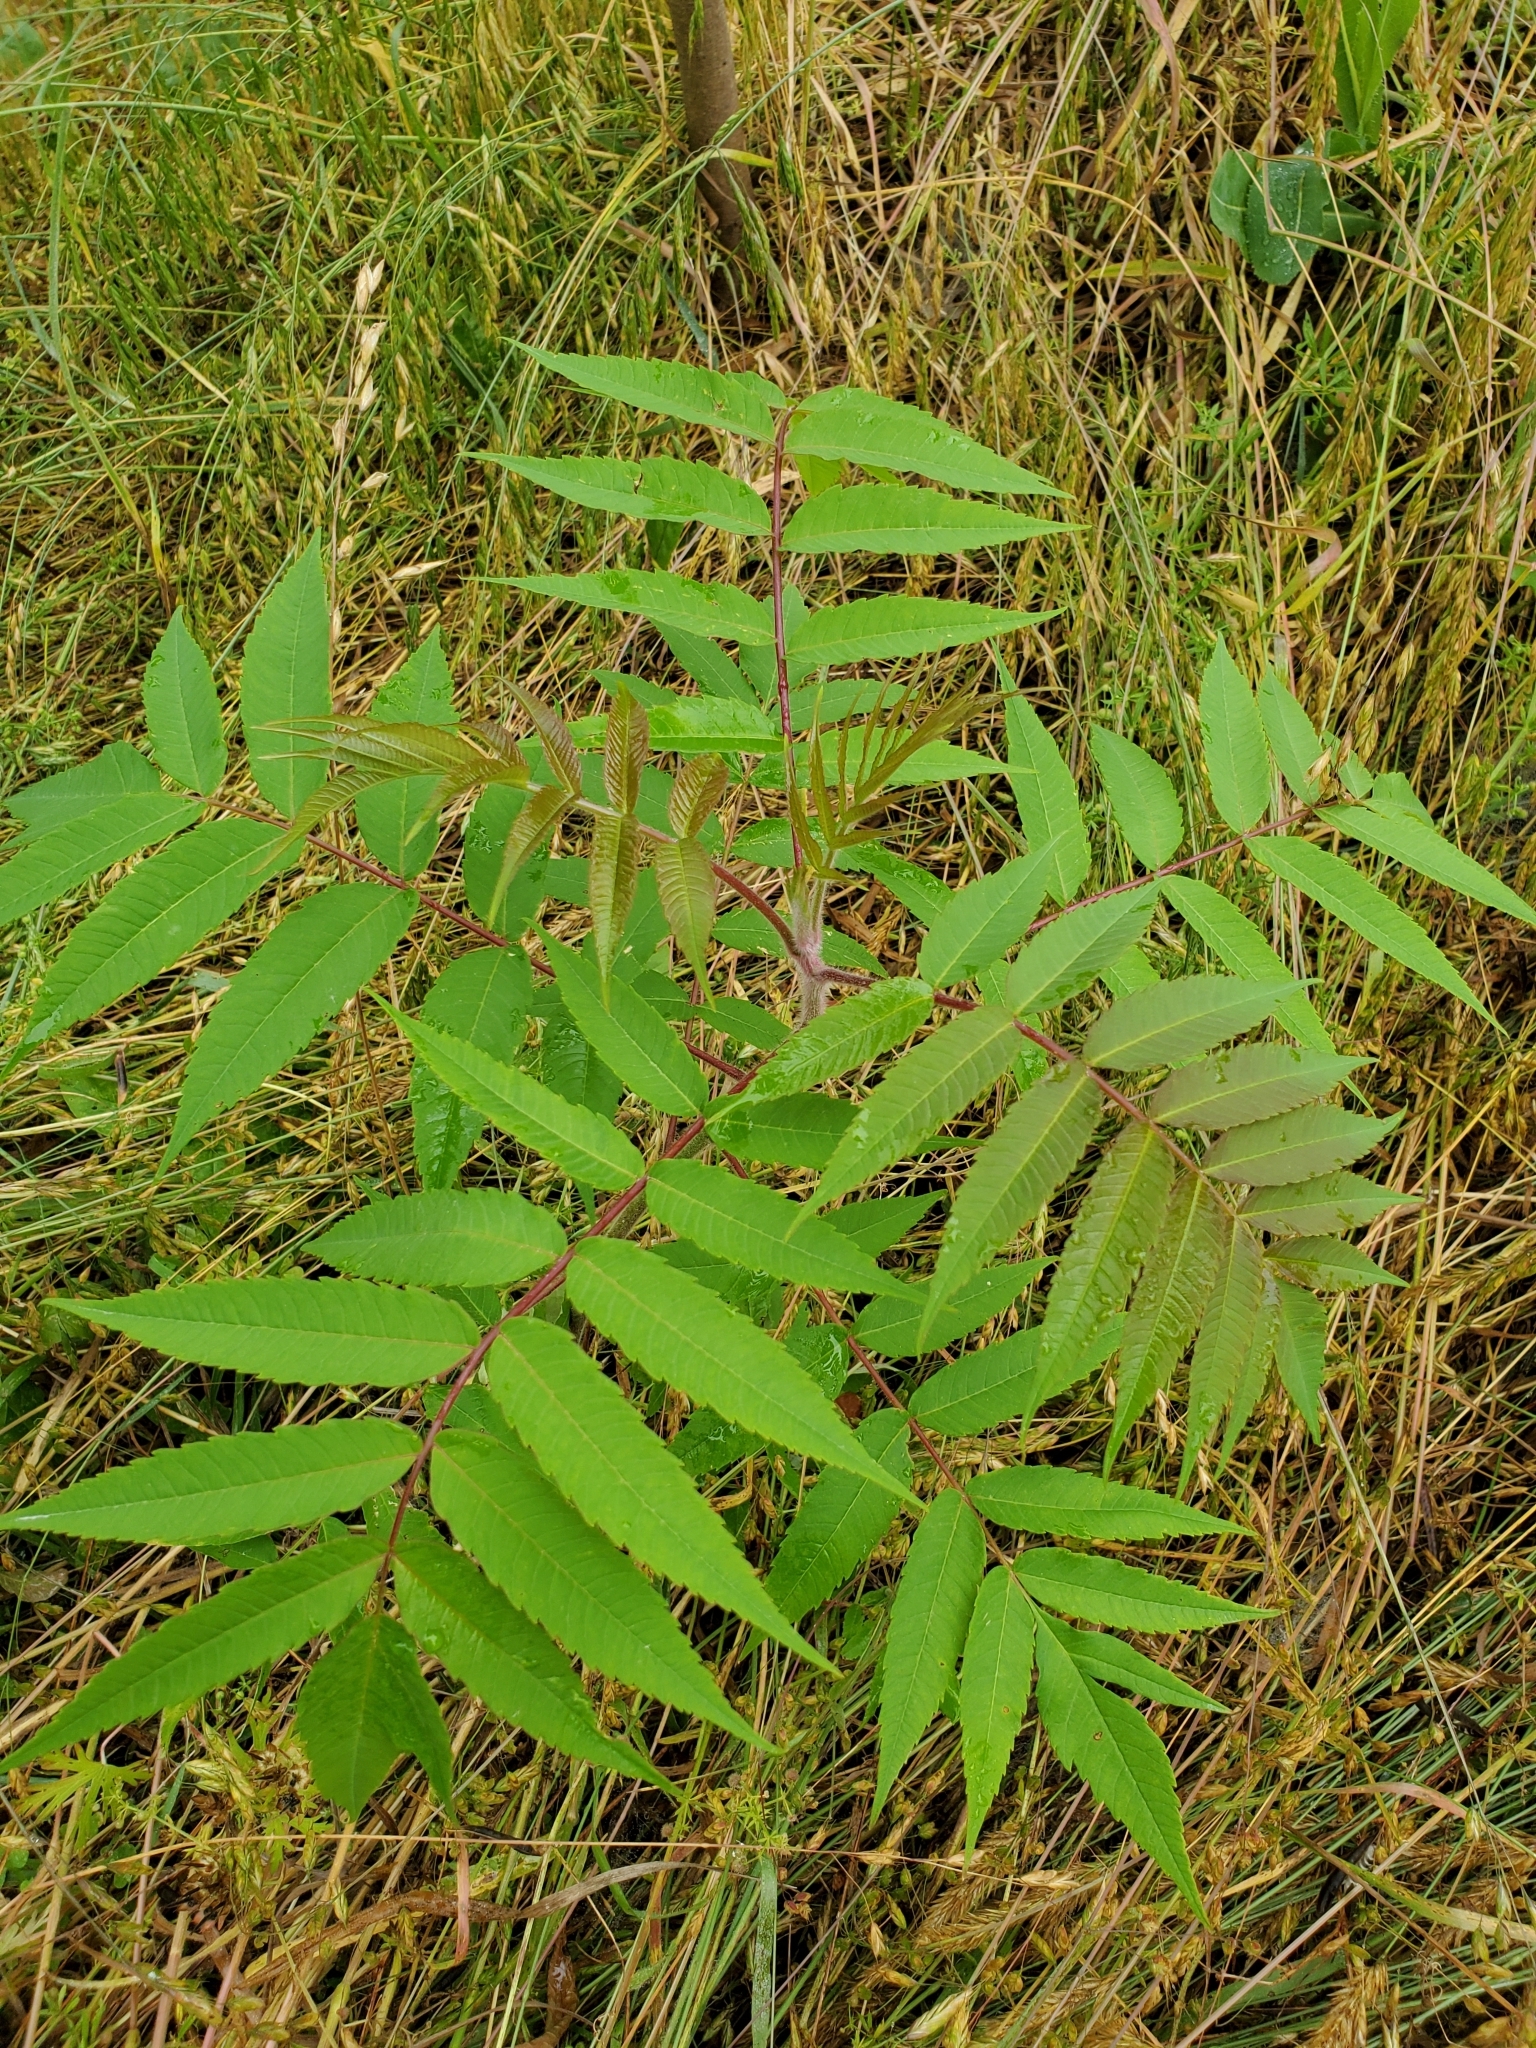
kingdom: Plantae
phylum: Tracheophyta
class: Magnoliopsida
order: Sapindales
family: Anacardiaceae
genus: Rhus
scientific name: Rhus typhina
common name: Staghorn sumac
